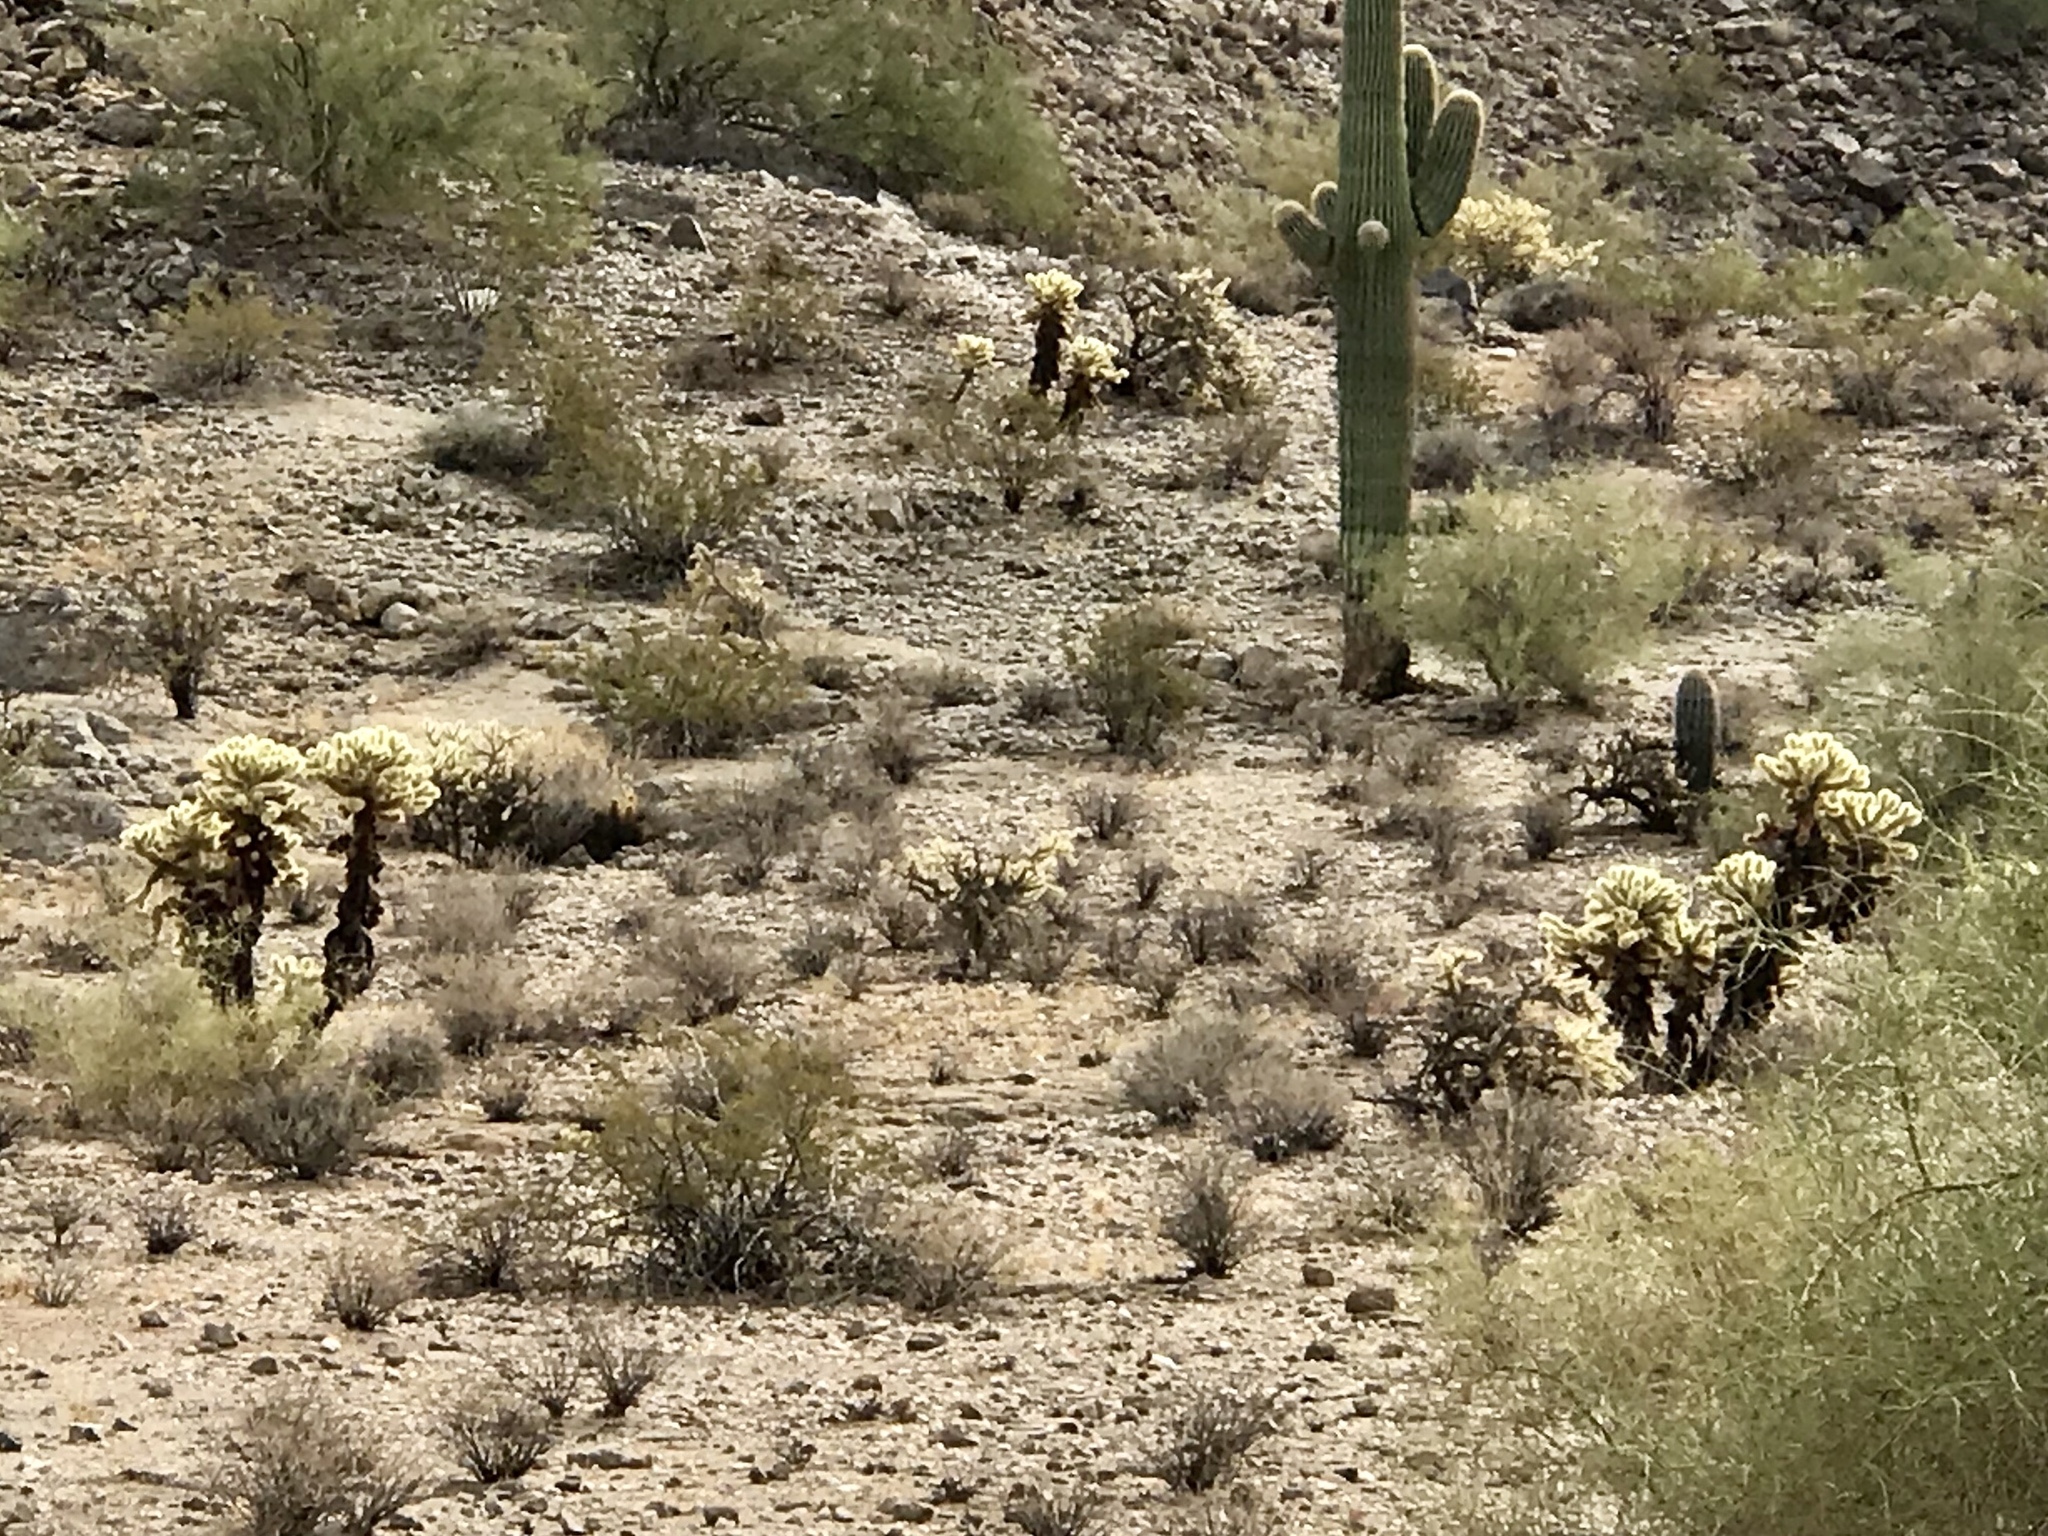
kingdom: Plantae
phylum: Tracheophyta
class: Magnoliopsida
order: Caryophyllales
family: Cactaceae
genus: Cylindropuntia
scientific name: Cylindropuntia fosbergii
